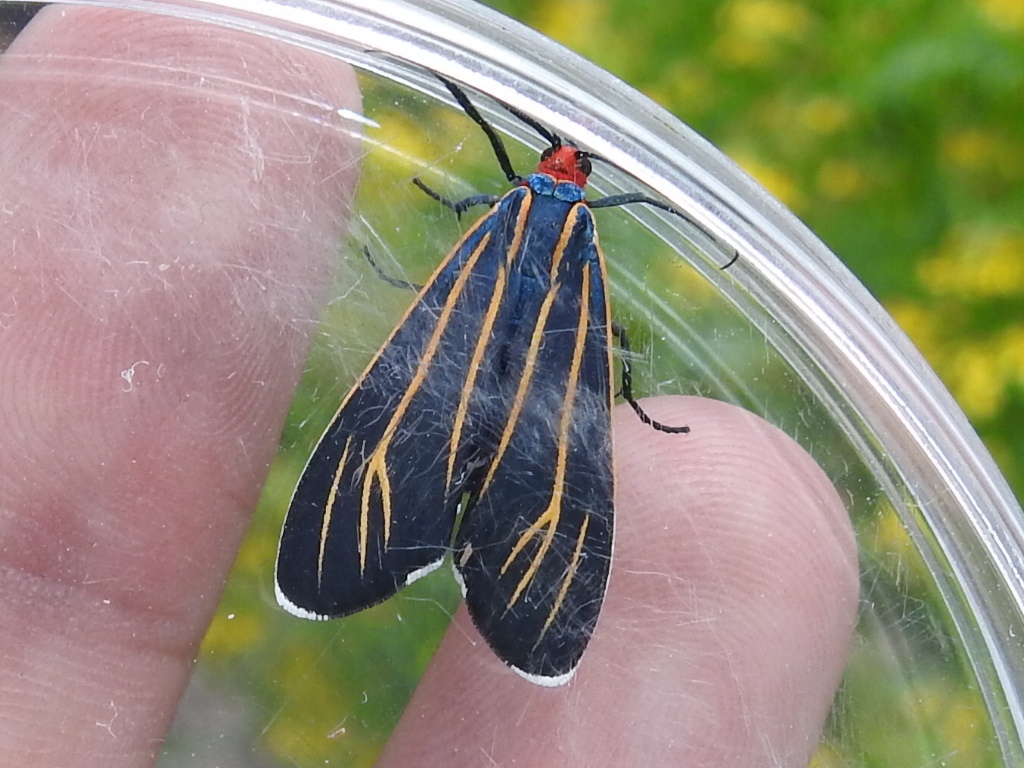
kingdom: Animalia
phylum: Arthropoda
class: Insecta
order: Lepidoptera
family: Erebidae
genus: Ctenucha
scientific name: Ctenucha venosa
